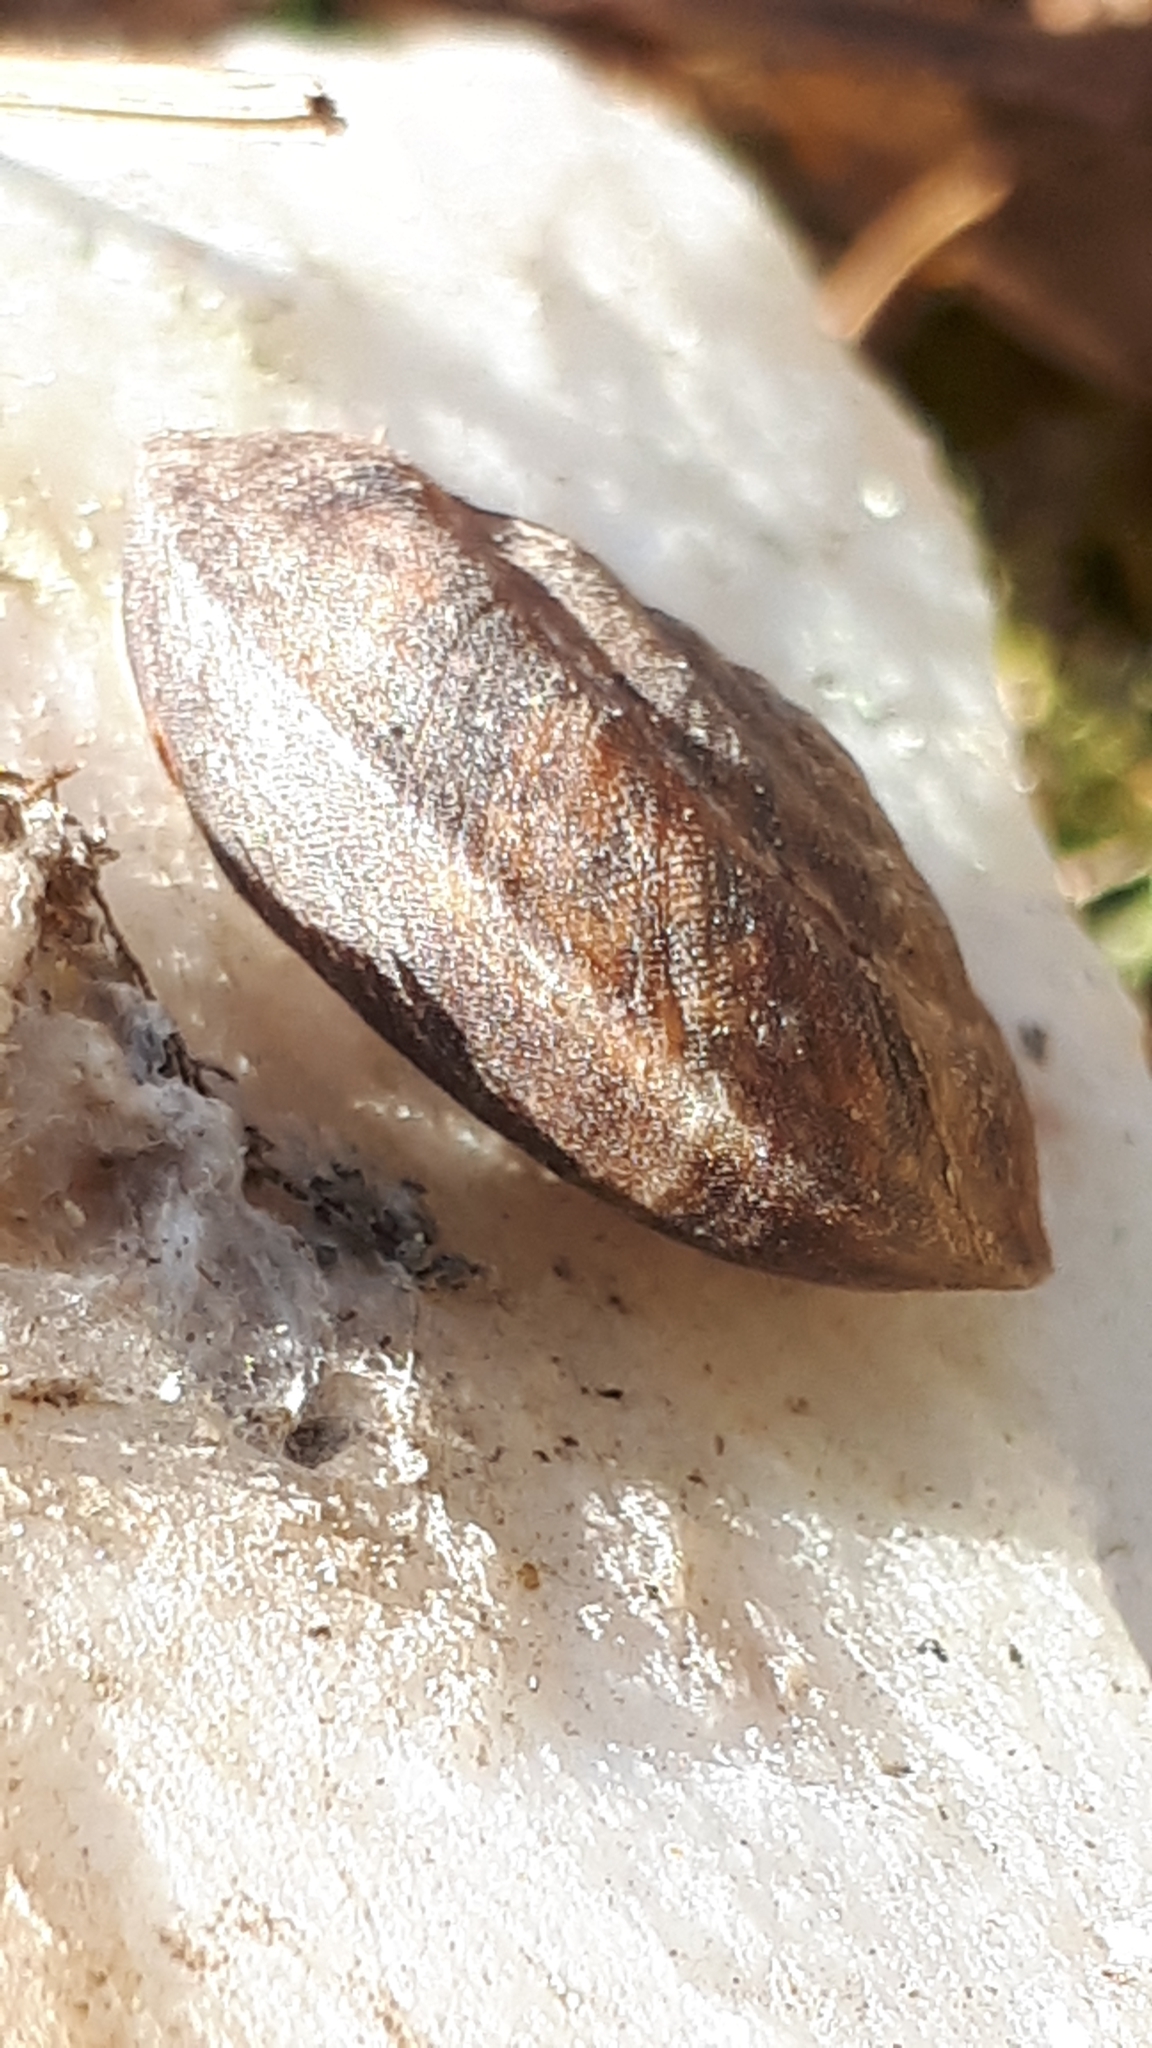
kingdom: Animalia
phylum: Mollusca
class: Gastropoda
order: Stylommatophora
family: Helicidae
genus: Helicigona
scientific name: Helicigona lapicida
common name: Lapidary snail
